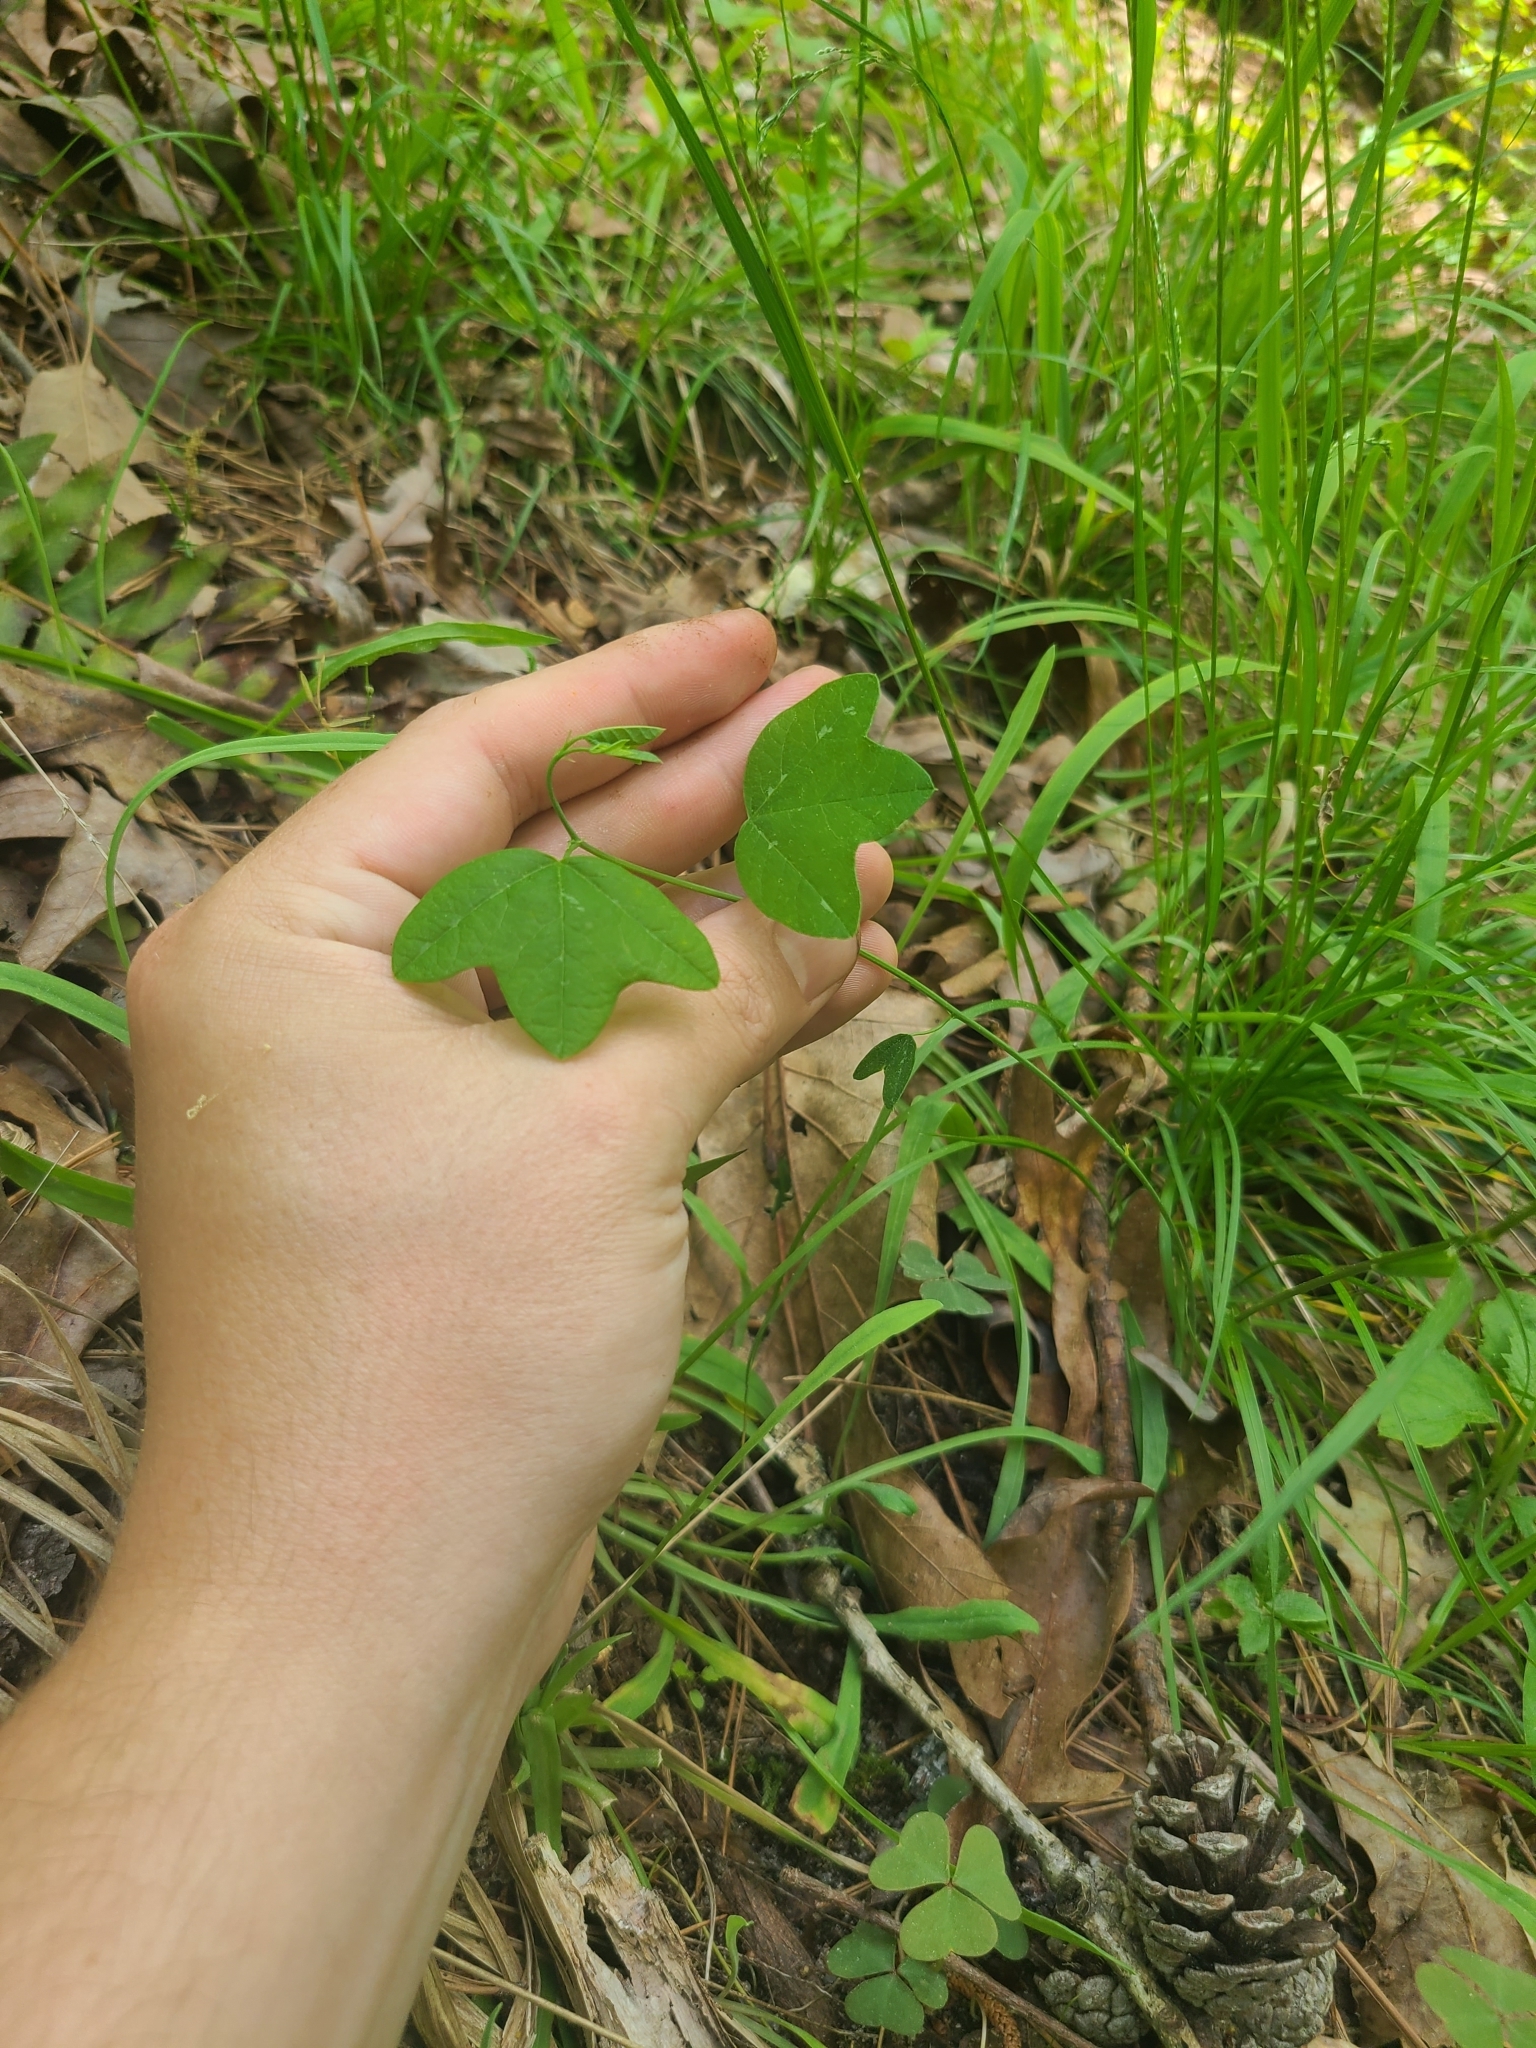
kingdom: Plantae
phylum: Tracheophyta
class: Magnoliopsida
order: Malpighiales
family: Passifloraceae
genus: Passiflora
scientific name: Passiflora lutea
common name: Yellow passionflower
